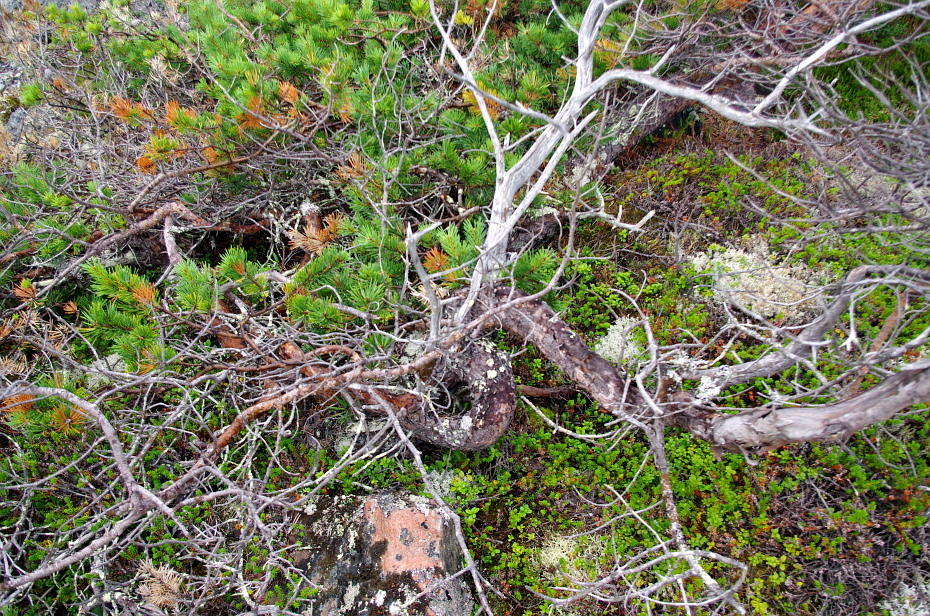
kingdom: Plantae
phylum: Tracheophyta
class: Pinopsida
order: Pinales
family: Pinaceae
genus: Pinus
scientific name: Pinus sylvestris
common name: Scots pine
